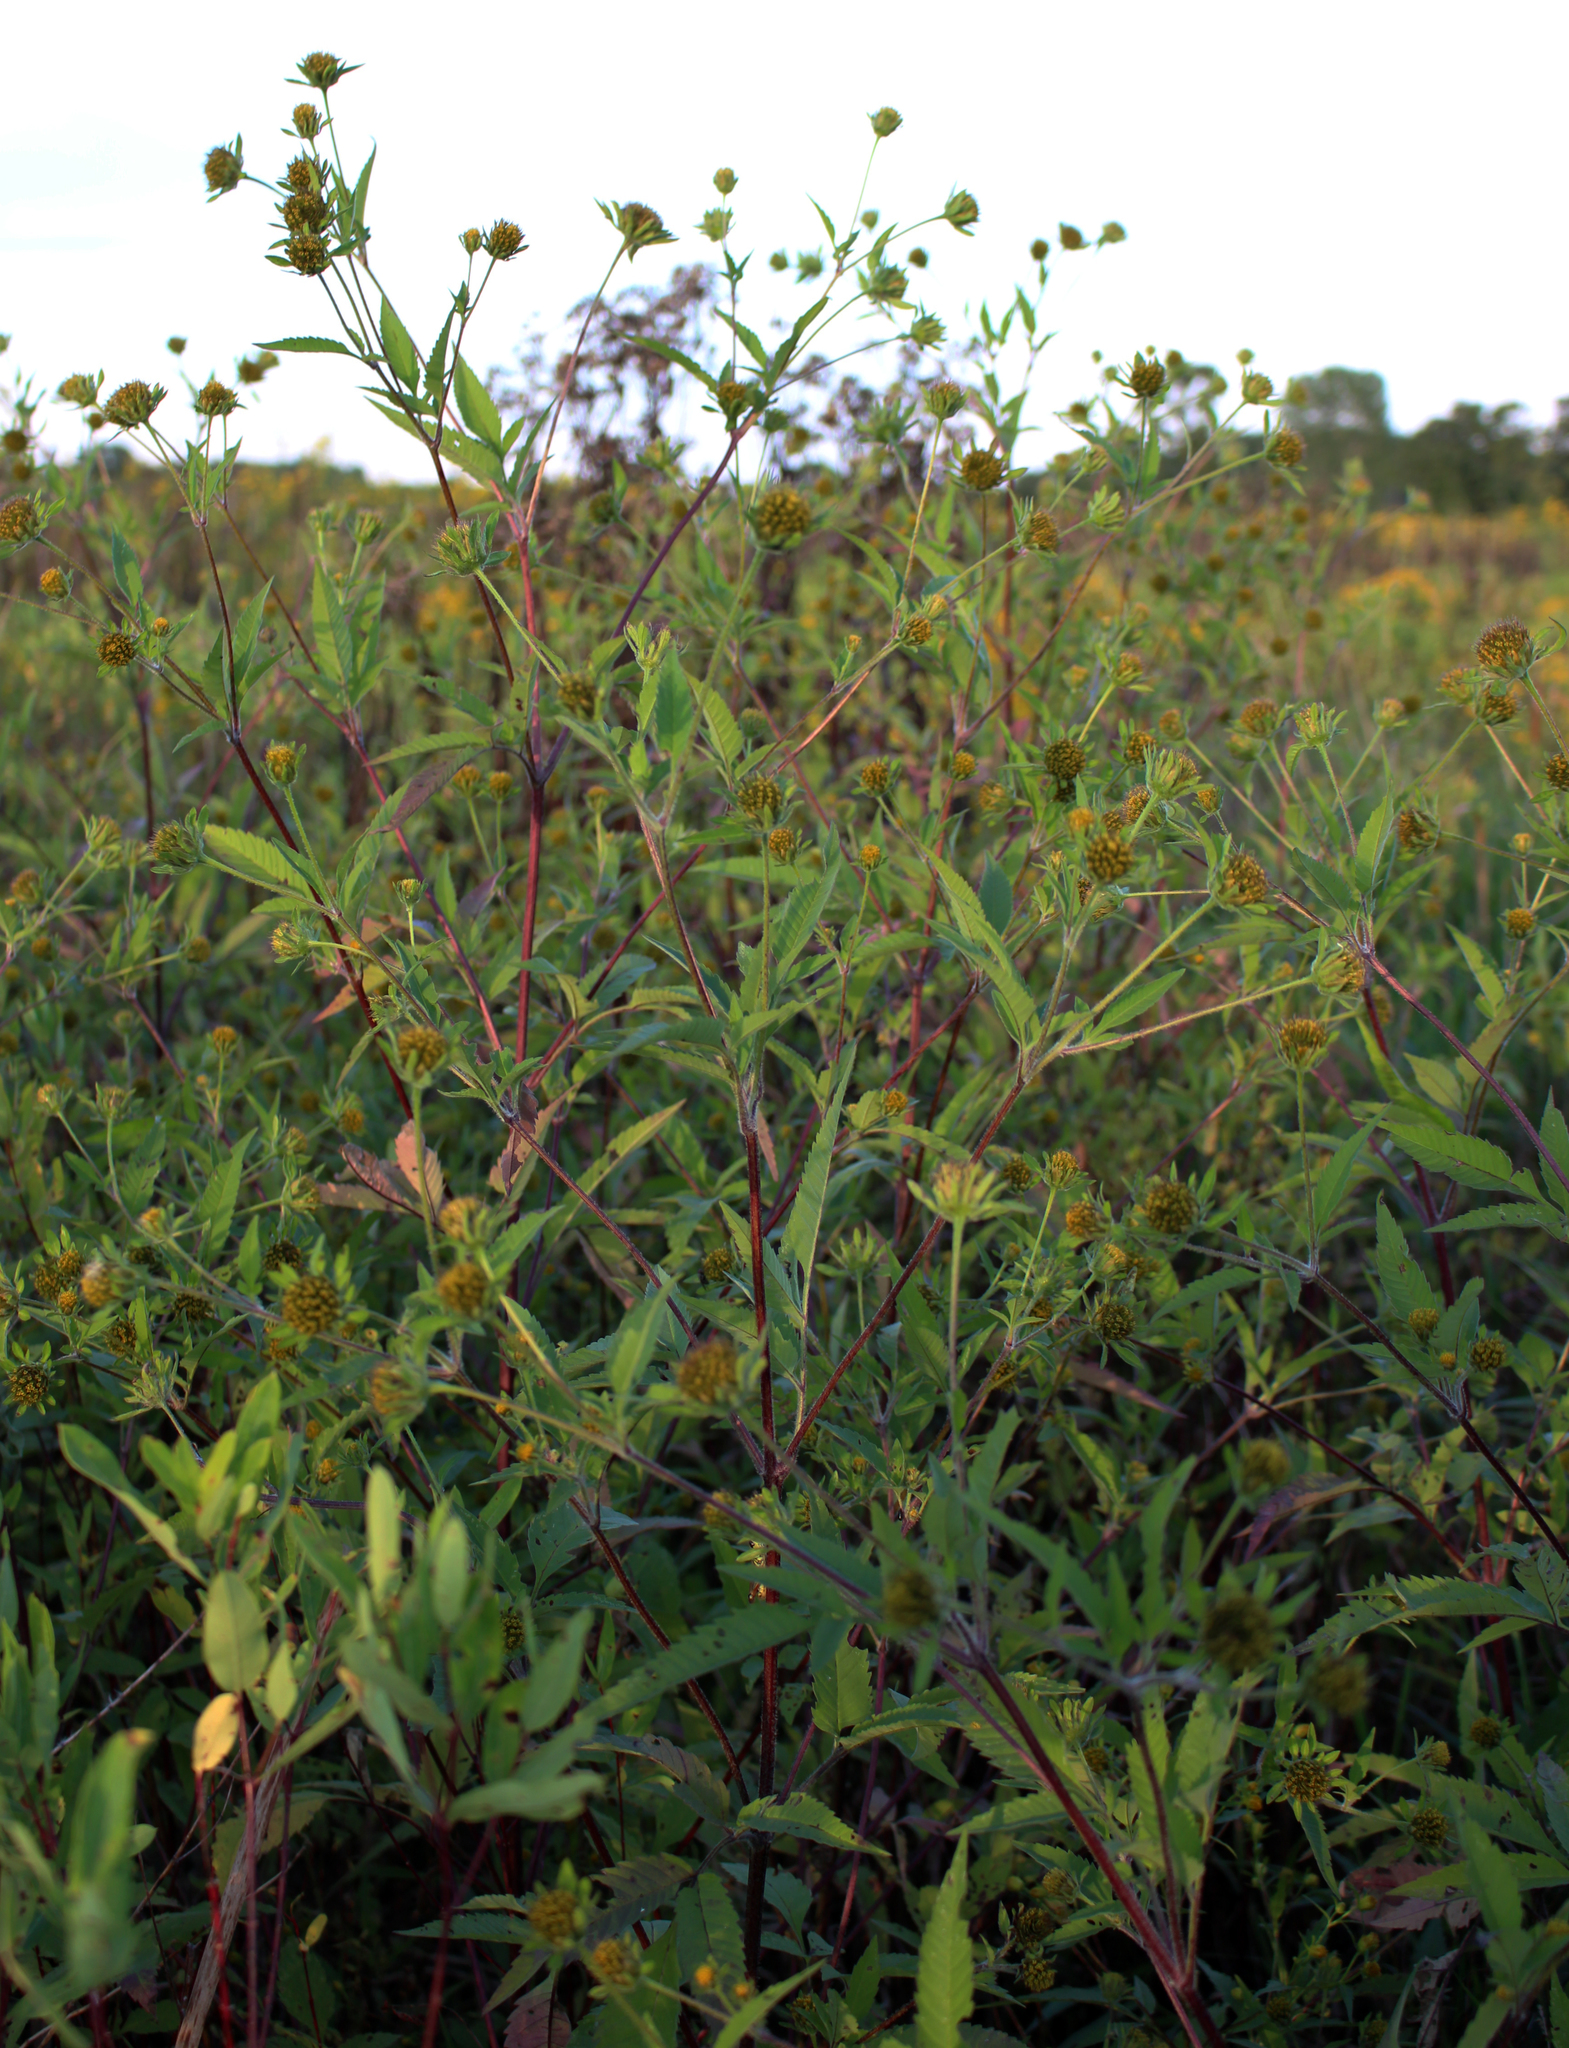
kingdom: Plantae
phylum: Tracheophyta
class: Magnoliopsida
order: Asterales
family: Asteraceae
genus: Bidens
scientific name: Bidens vulgata
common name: Tall beggarticks
